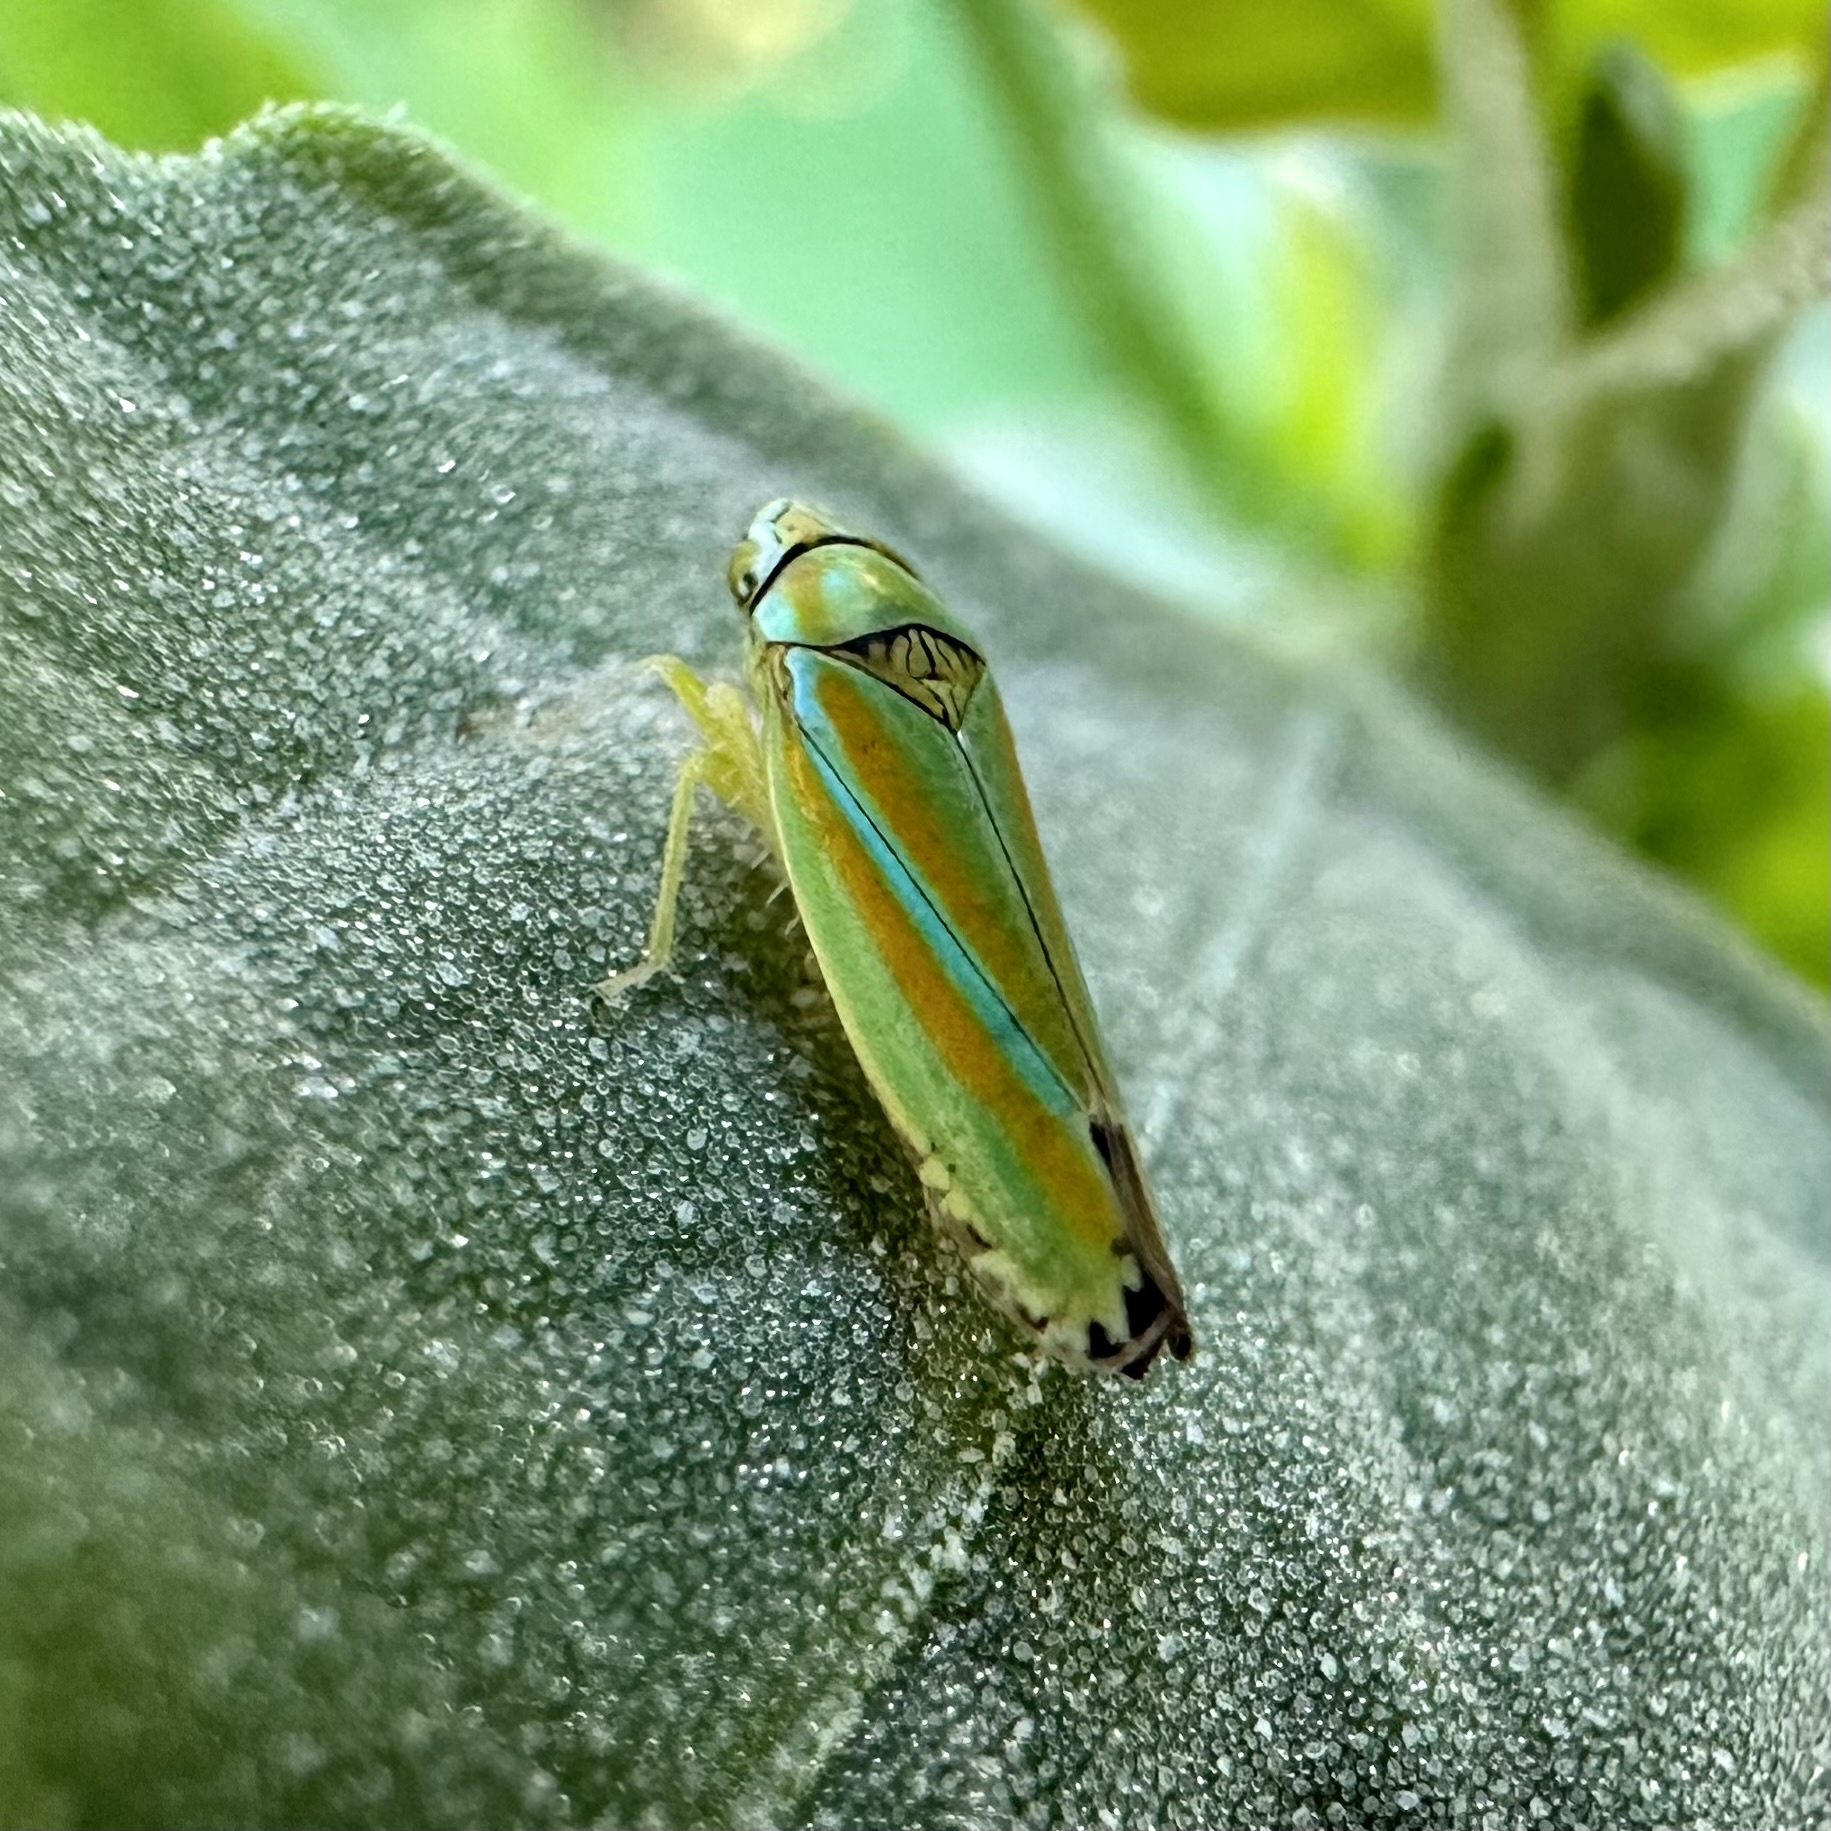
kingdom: Animalia
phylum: Arthropoda
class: Insecta
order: Hemiptera
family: Cicadellidae
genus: Graphocephala
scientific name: Graphocephala versuta
